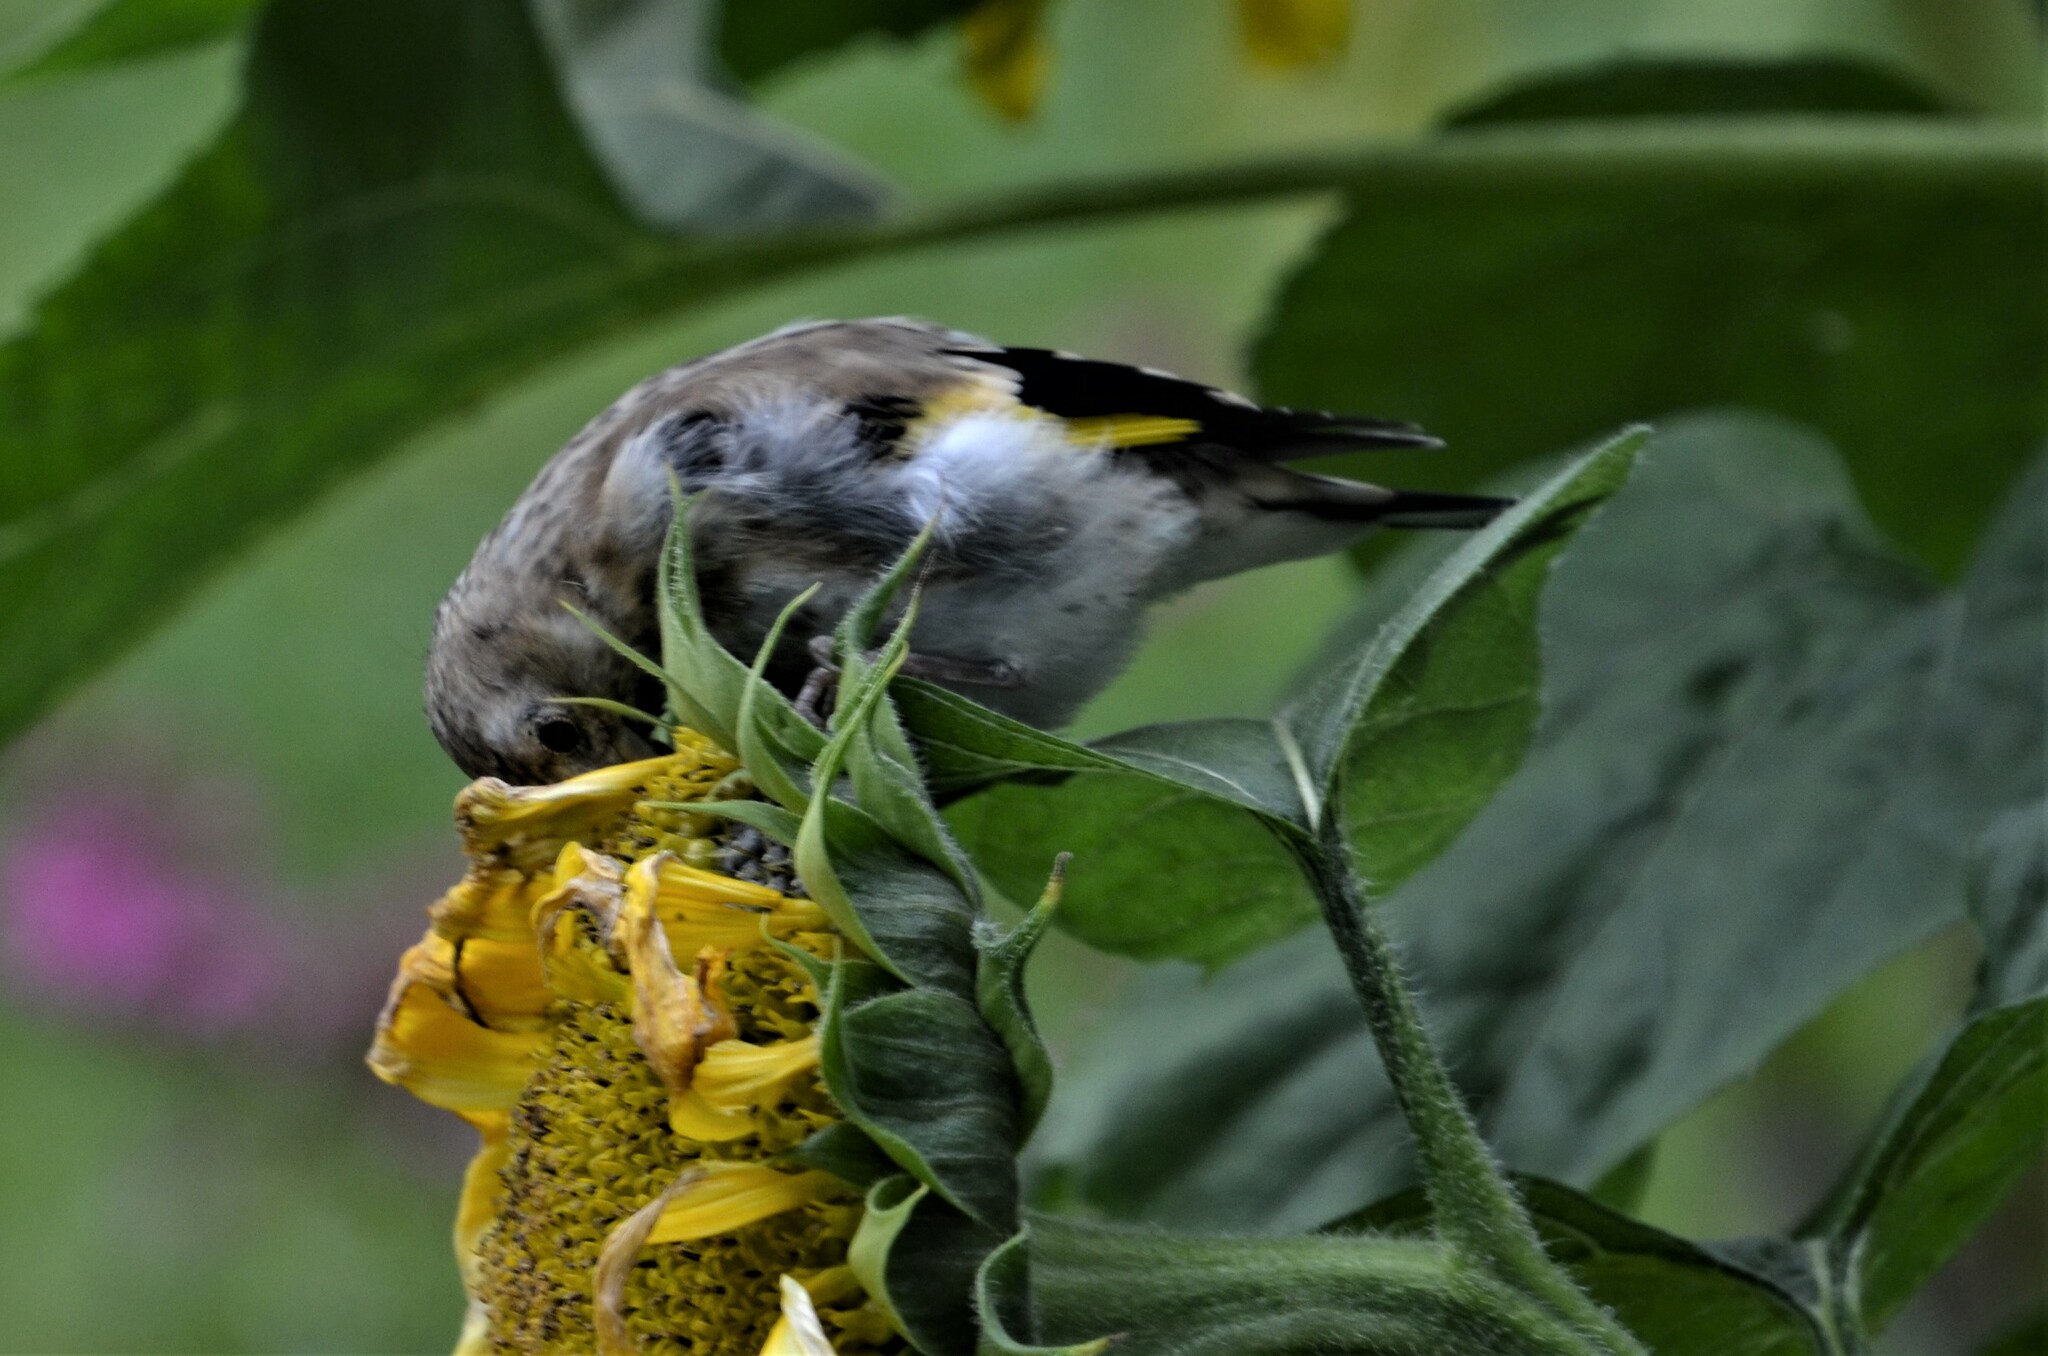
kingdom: Animalia
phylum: Chordata
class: Aves
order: Passeriformes
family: Fringillidae
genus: Carduelis
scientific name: Carduelis carduelis
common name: European goldfinch
